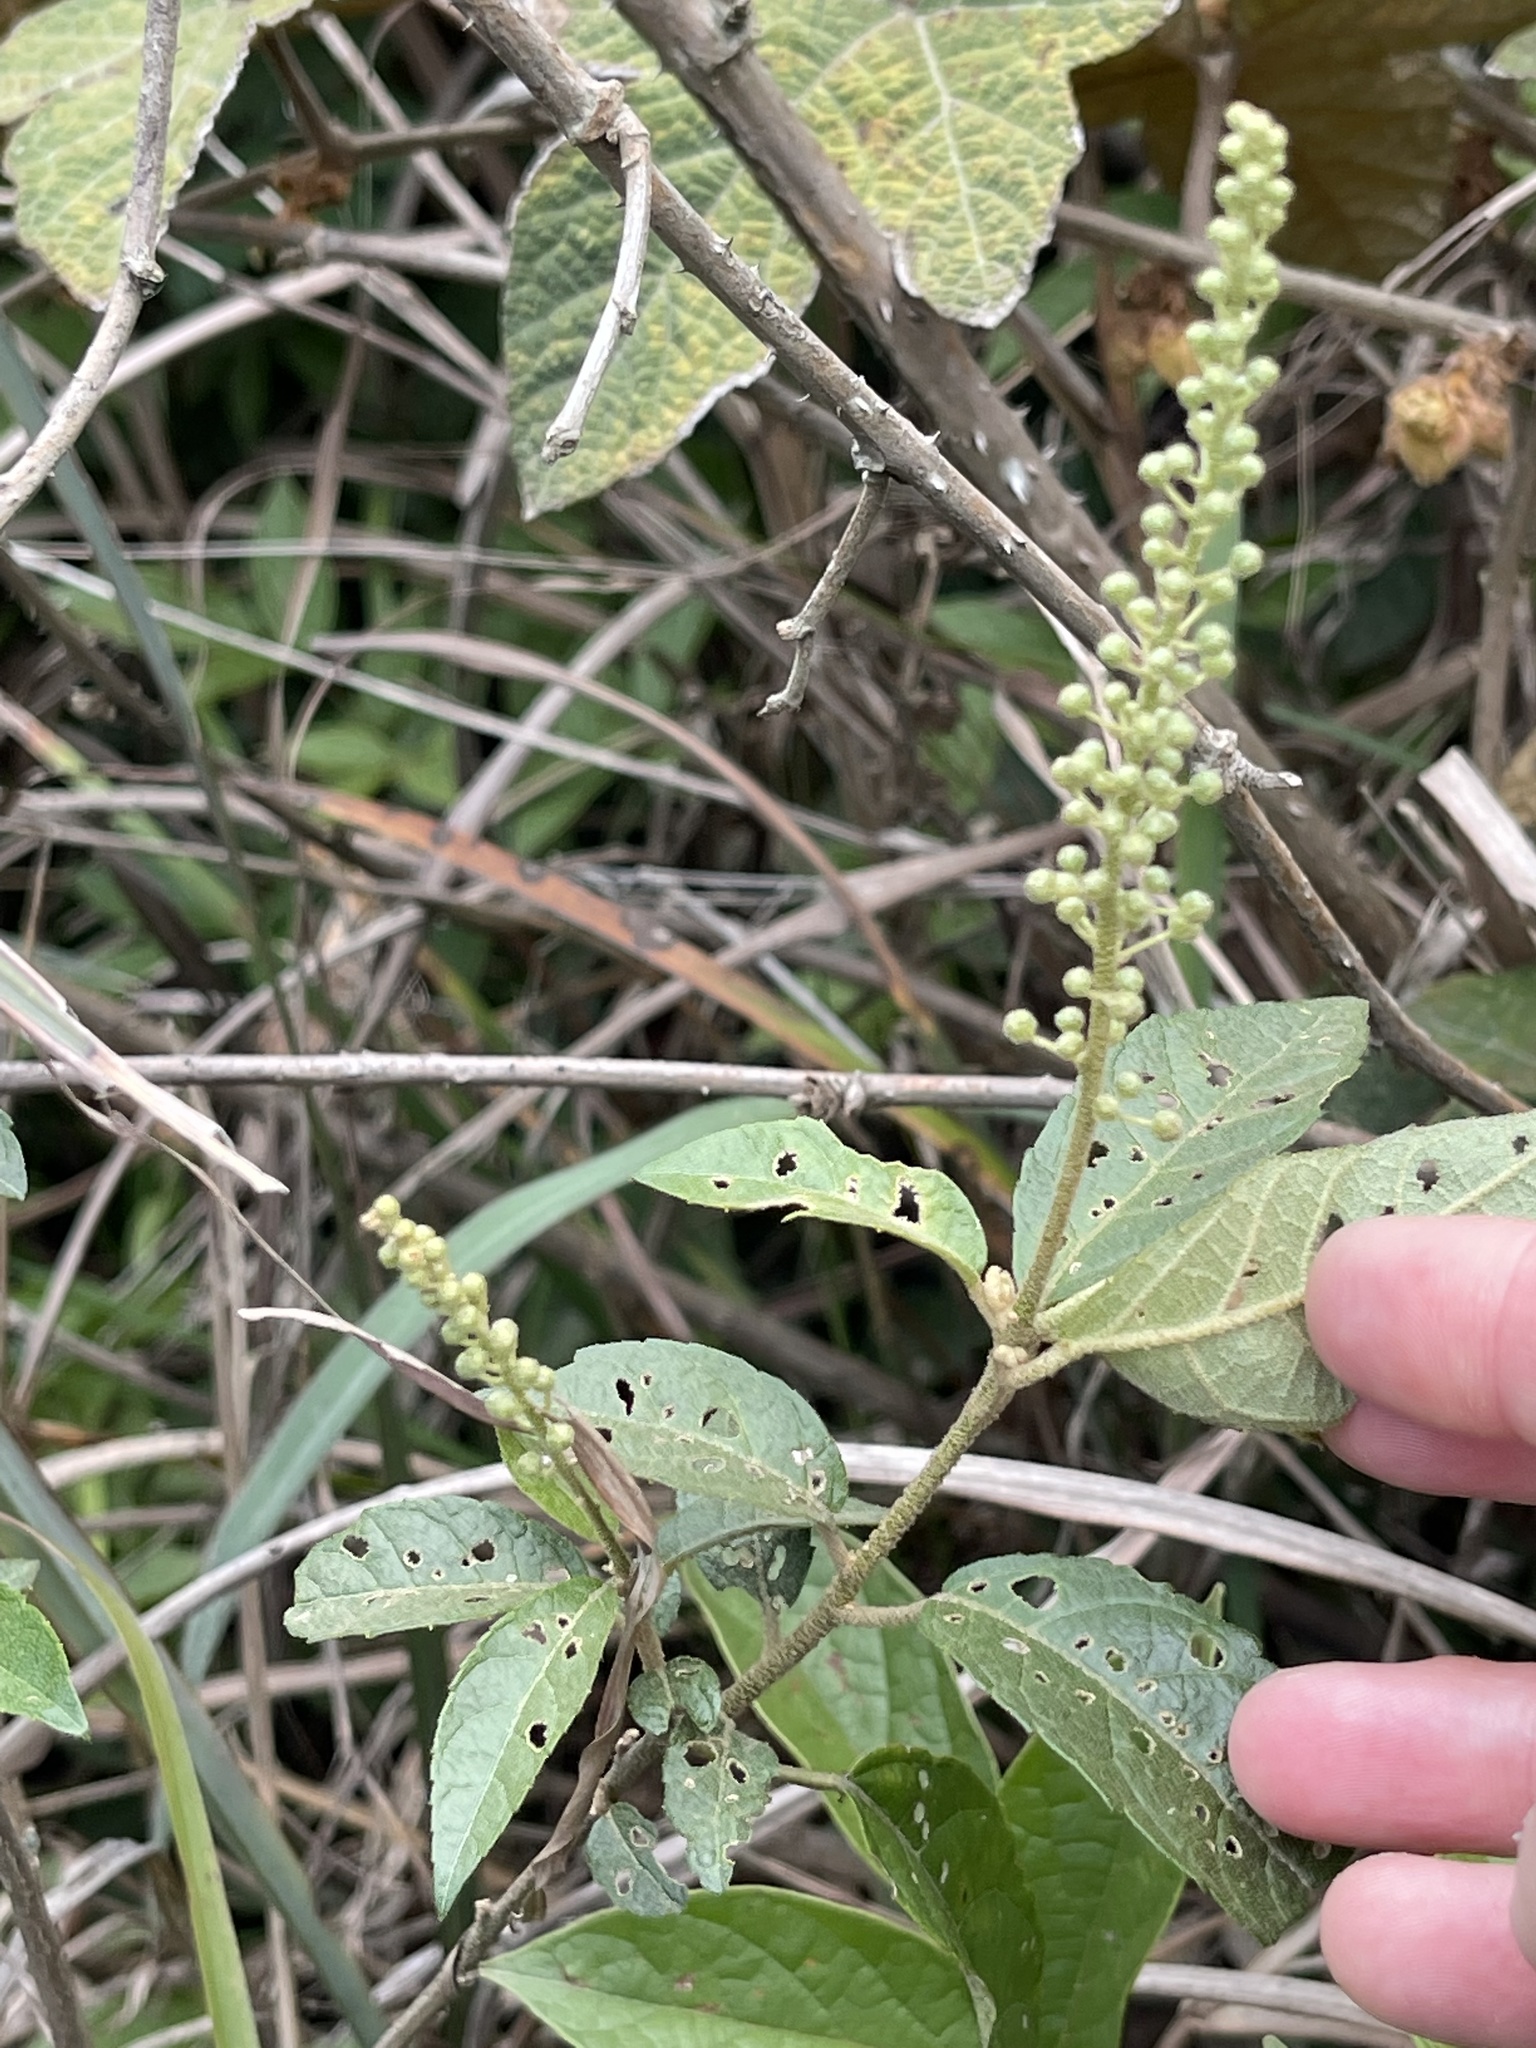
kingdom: Plantae
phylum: Tracheophyta
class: Magnoliopsida
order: Malpighiales
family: Euphorbiaceae
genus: Croton
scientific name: Croton lachnocarpus
